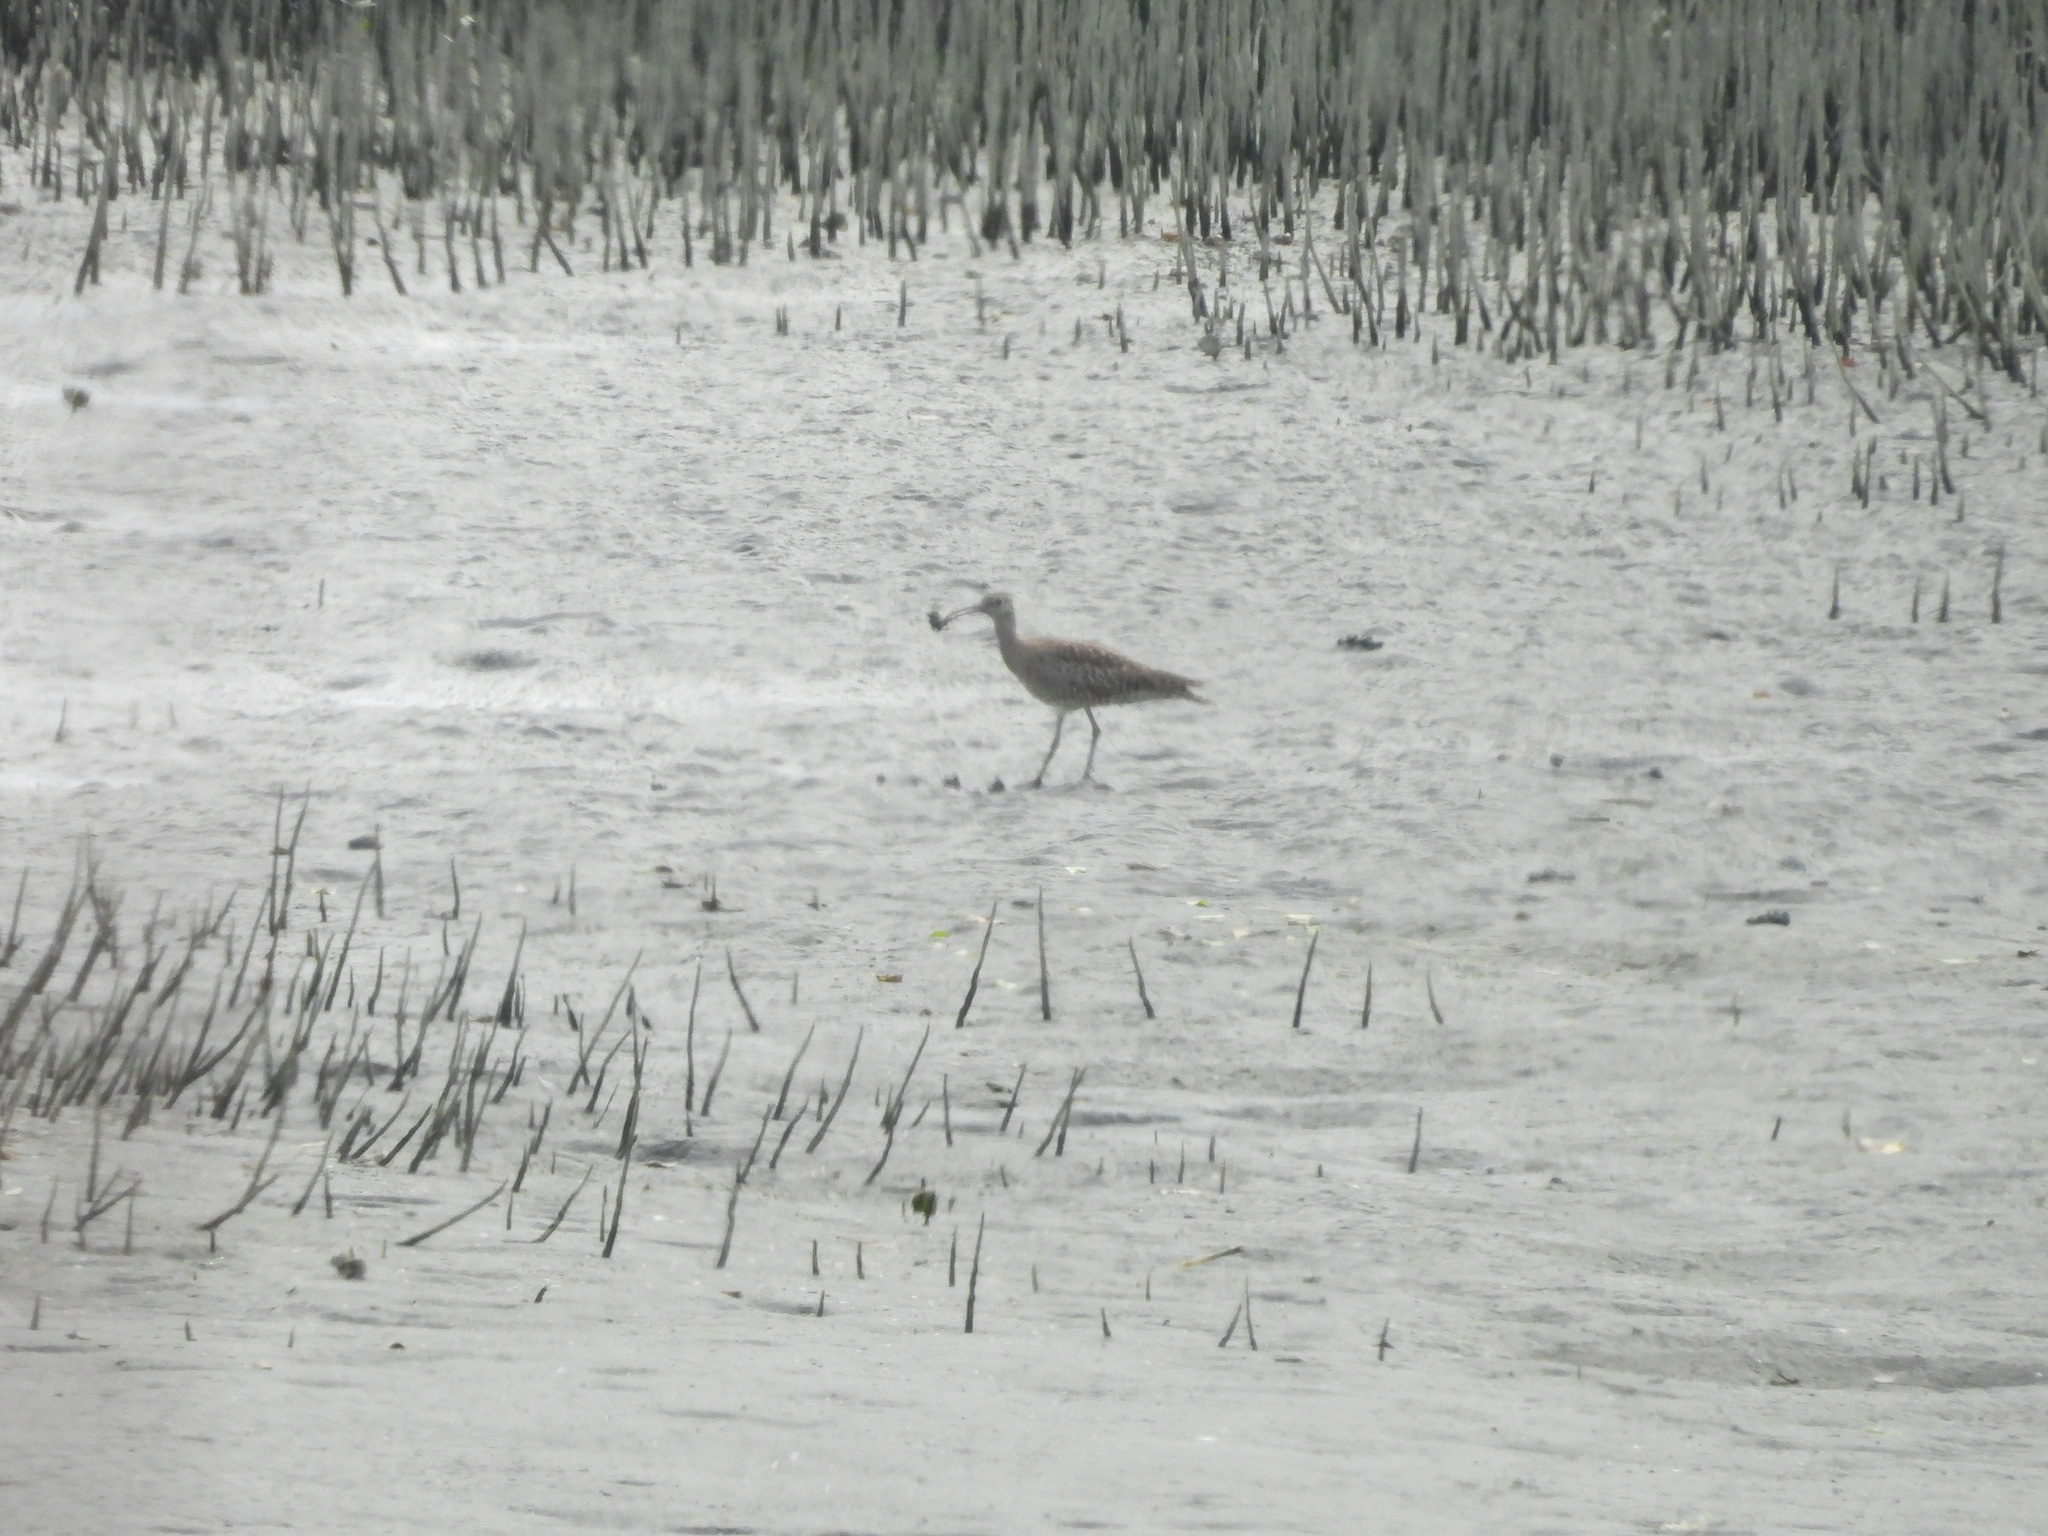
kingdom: Animalia
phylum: Chordata
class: Aves
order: Charadriiformes
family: Scolopacidae
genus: Numenius
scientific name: Numenius phaeopus
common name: Whimbrel
